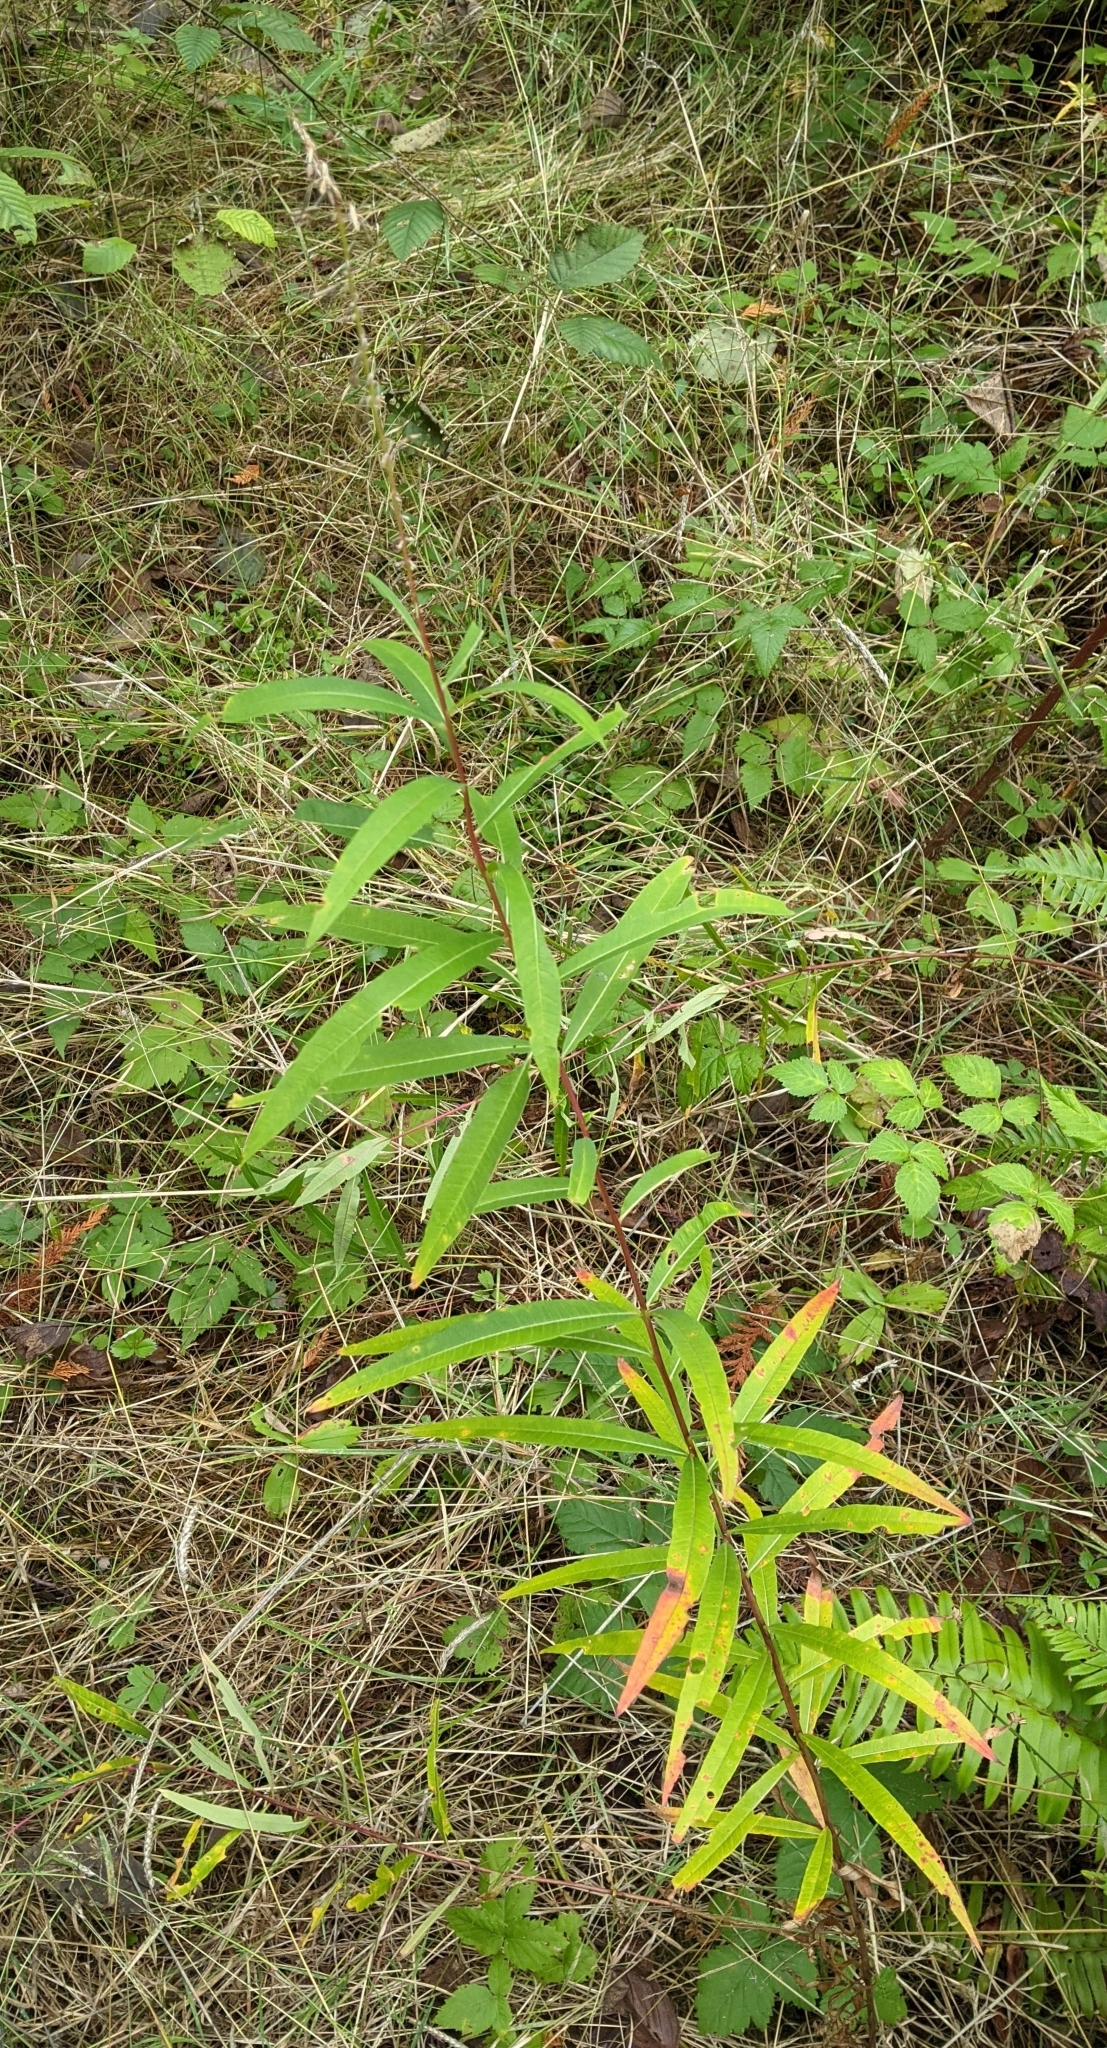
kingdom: Plantae
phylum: Tracheophyta
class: Magnoliopsida
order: Myrtales
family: Onagraceae
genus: Chamaenerion
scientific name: Chamaenerion angustifolium
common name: Fireweed
